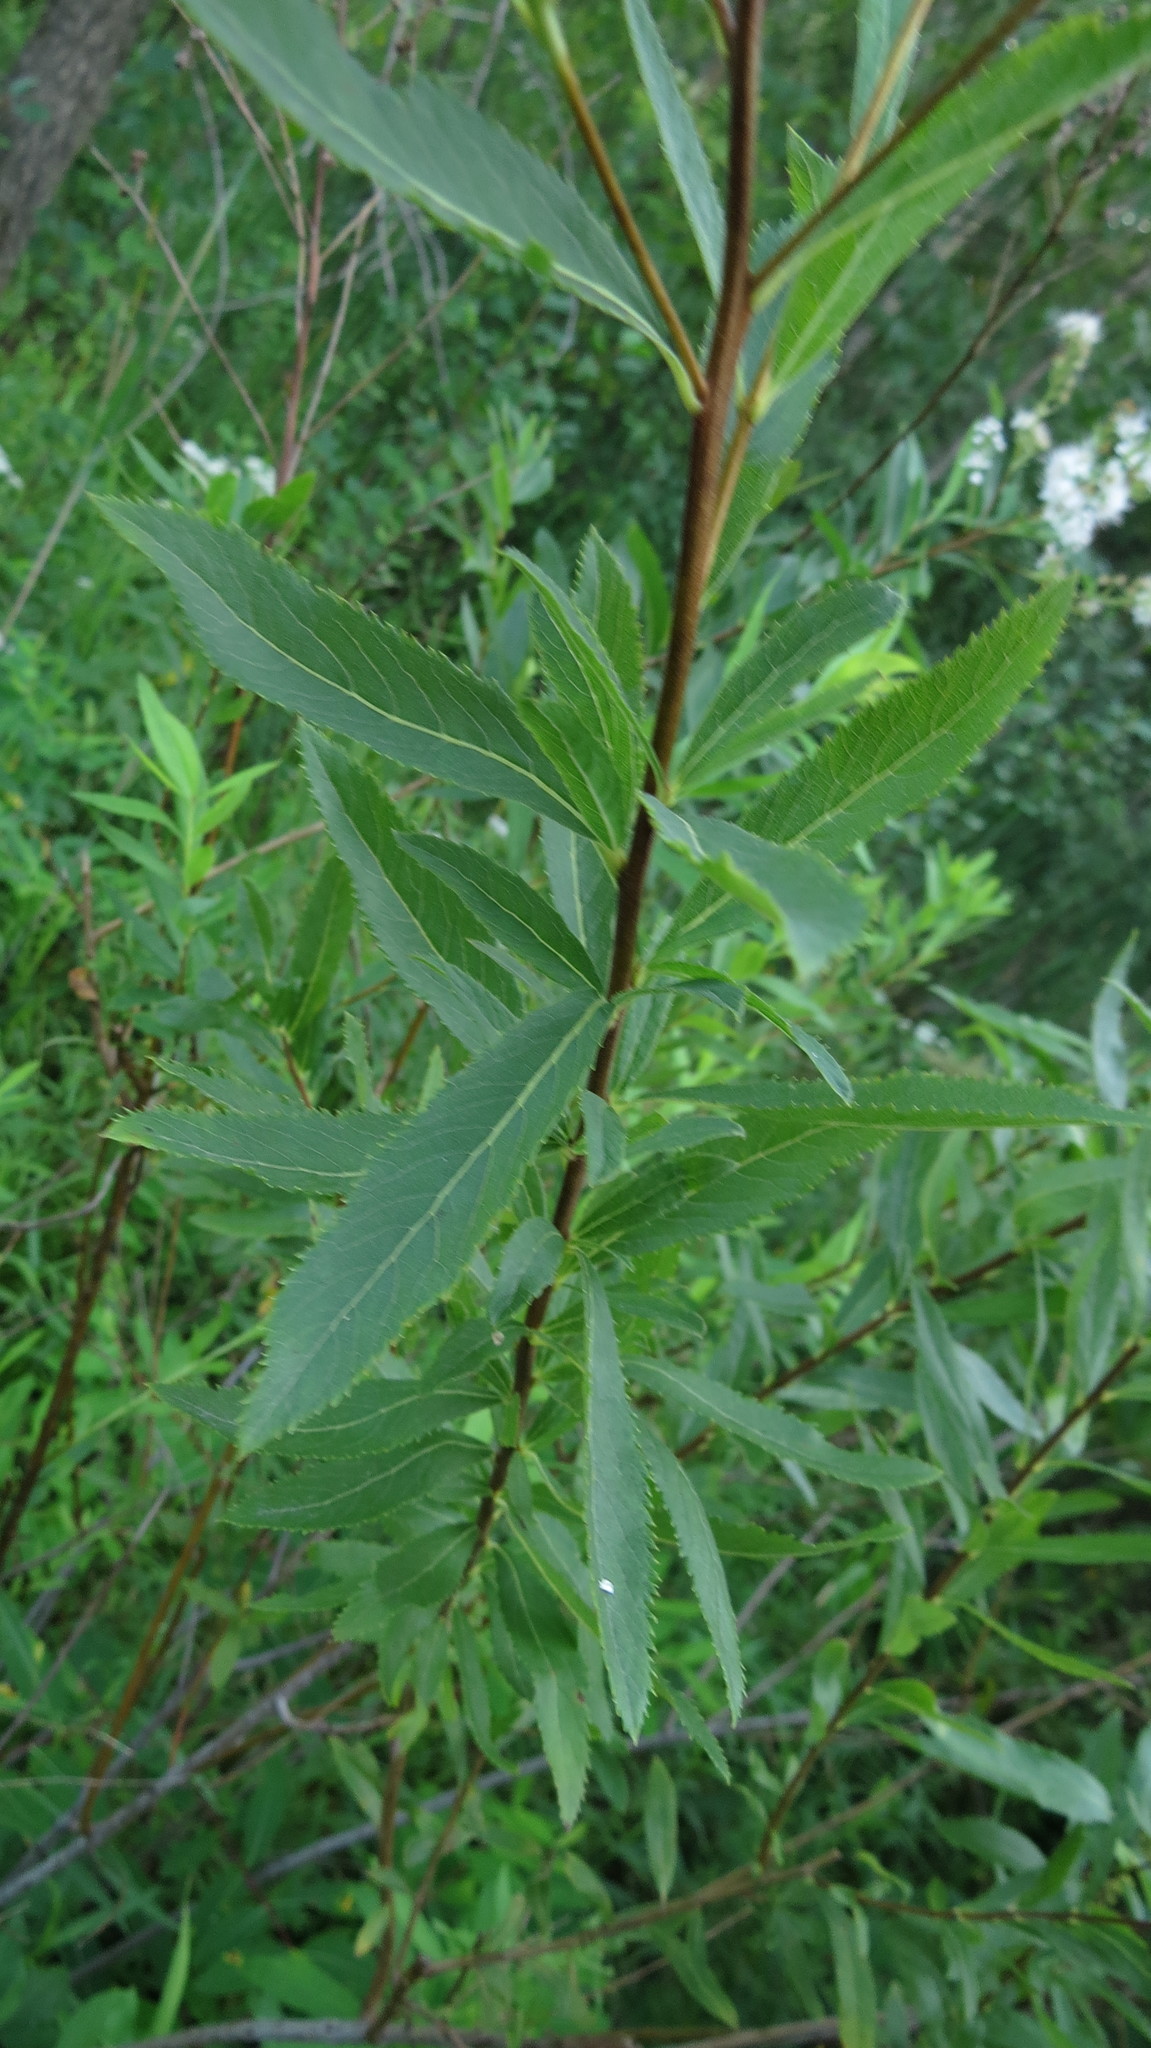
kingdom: Plantae
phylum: Tracheophyta
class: Magnoliopsida
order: Rosales
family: Rosaceae
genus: Spiraea
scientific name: Spiraea alba
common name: Pale bridewort
